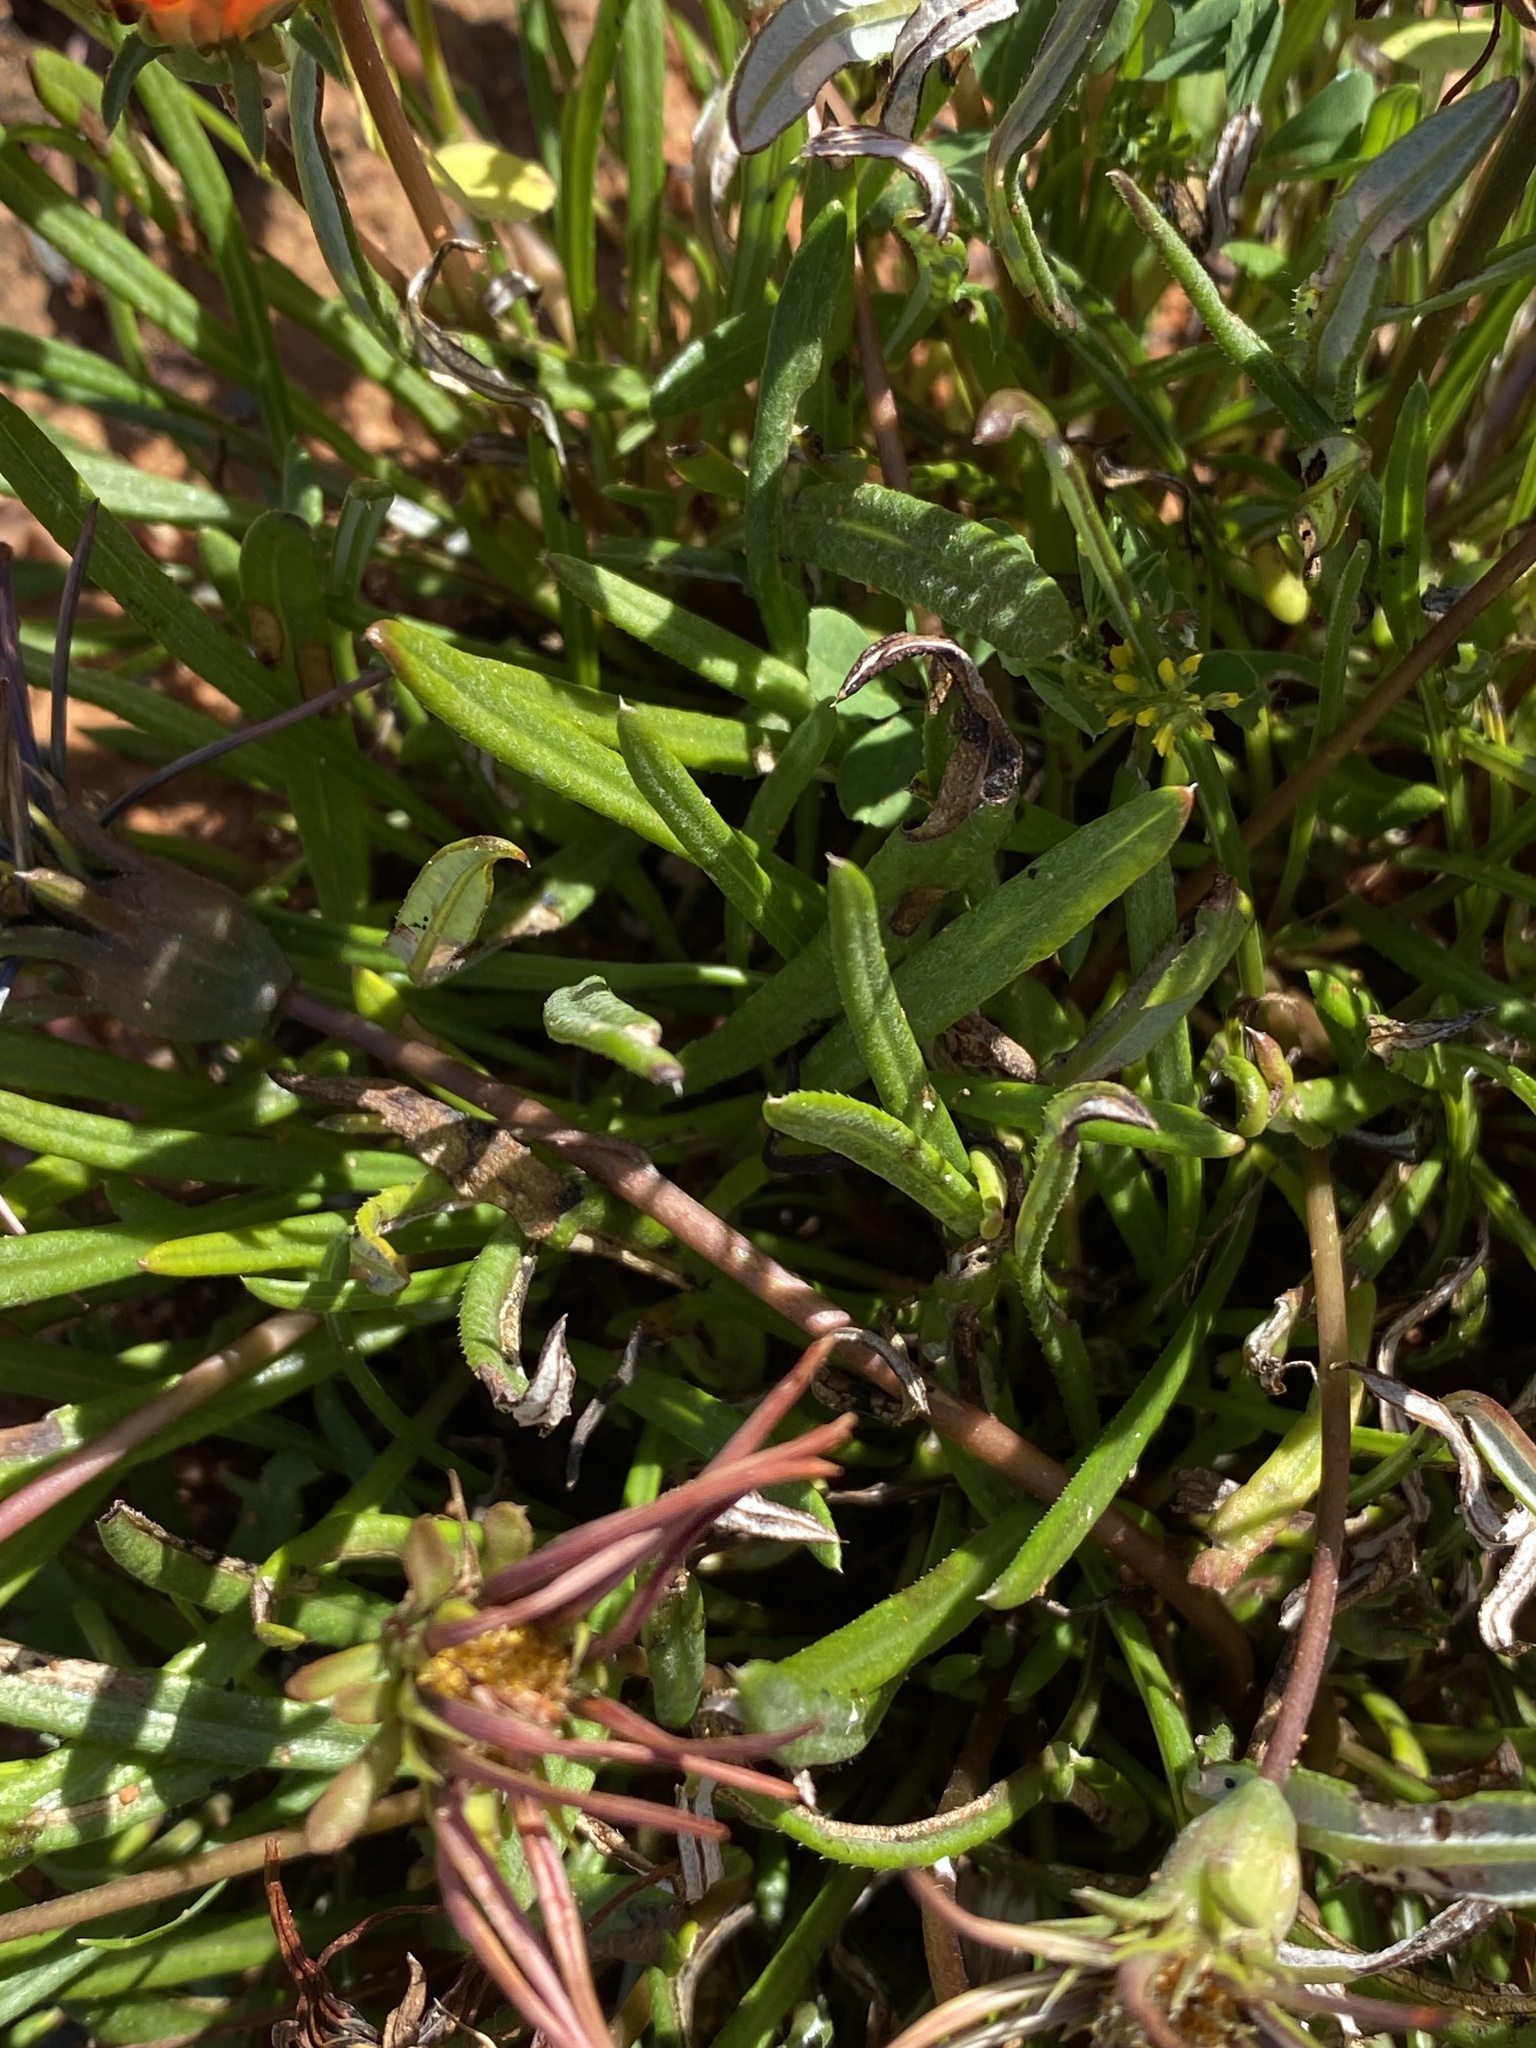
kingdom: Plantae
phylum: Tracheophyta
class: Magnoliopsida
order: Asterales
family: Asteraceae
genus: Gazania
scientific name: Gazania rigida
